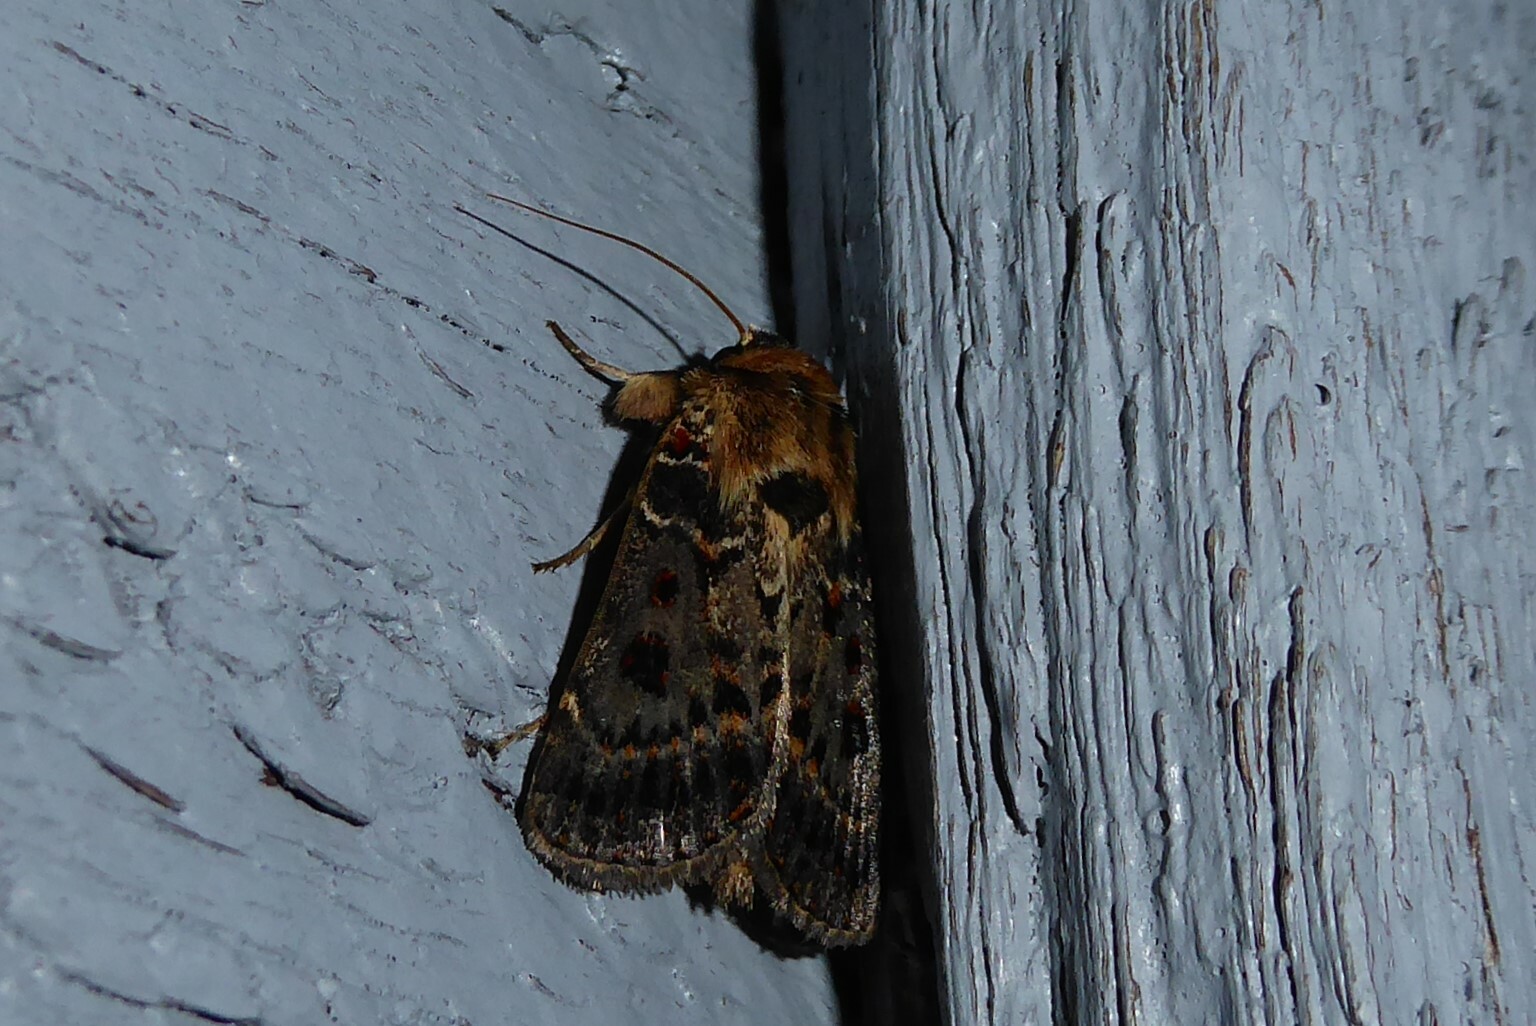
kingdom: Animalia
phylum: Arthropoda
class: Insecta
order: Lepidoptera
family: Noctuidae
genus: Proteuxoa
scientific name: Proteuxoa sanguinipuncta
